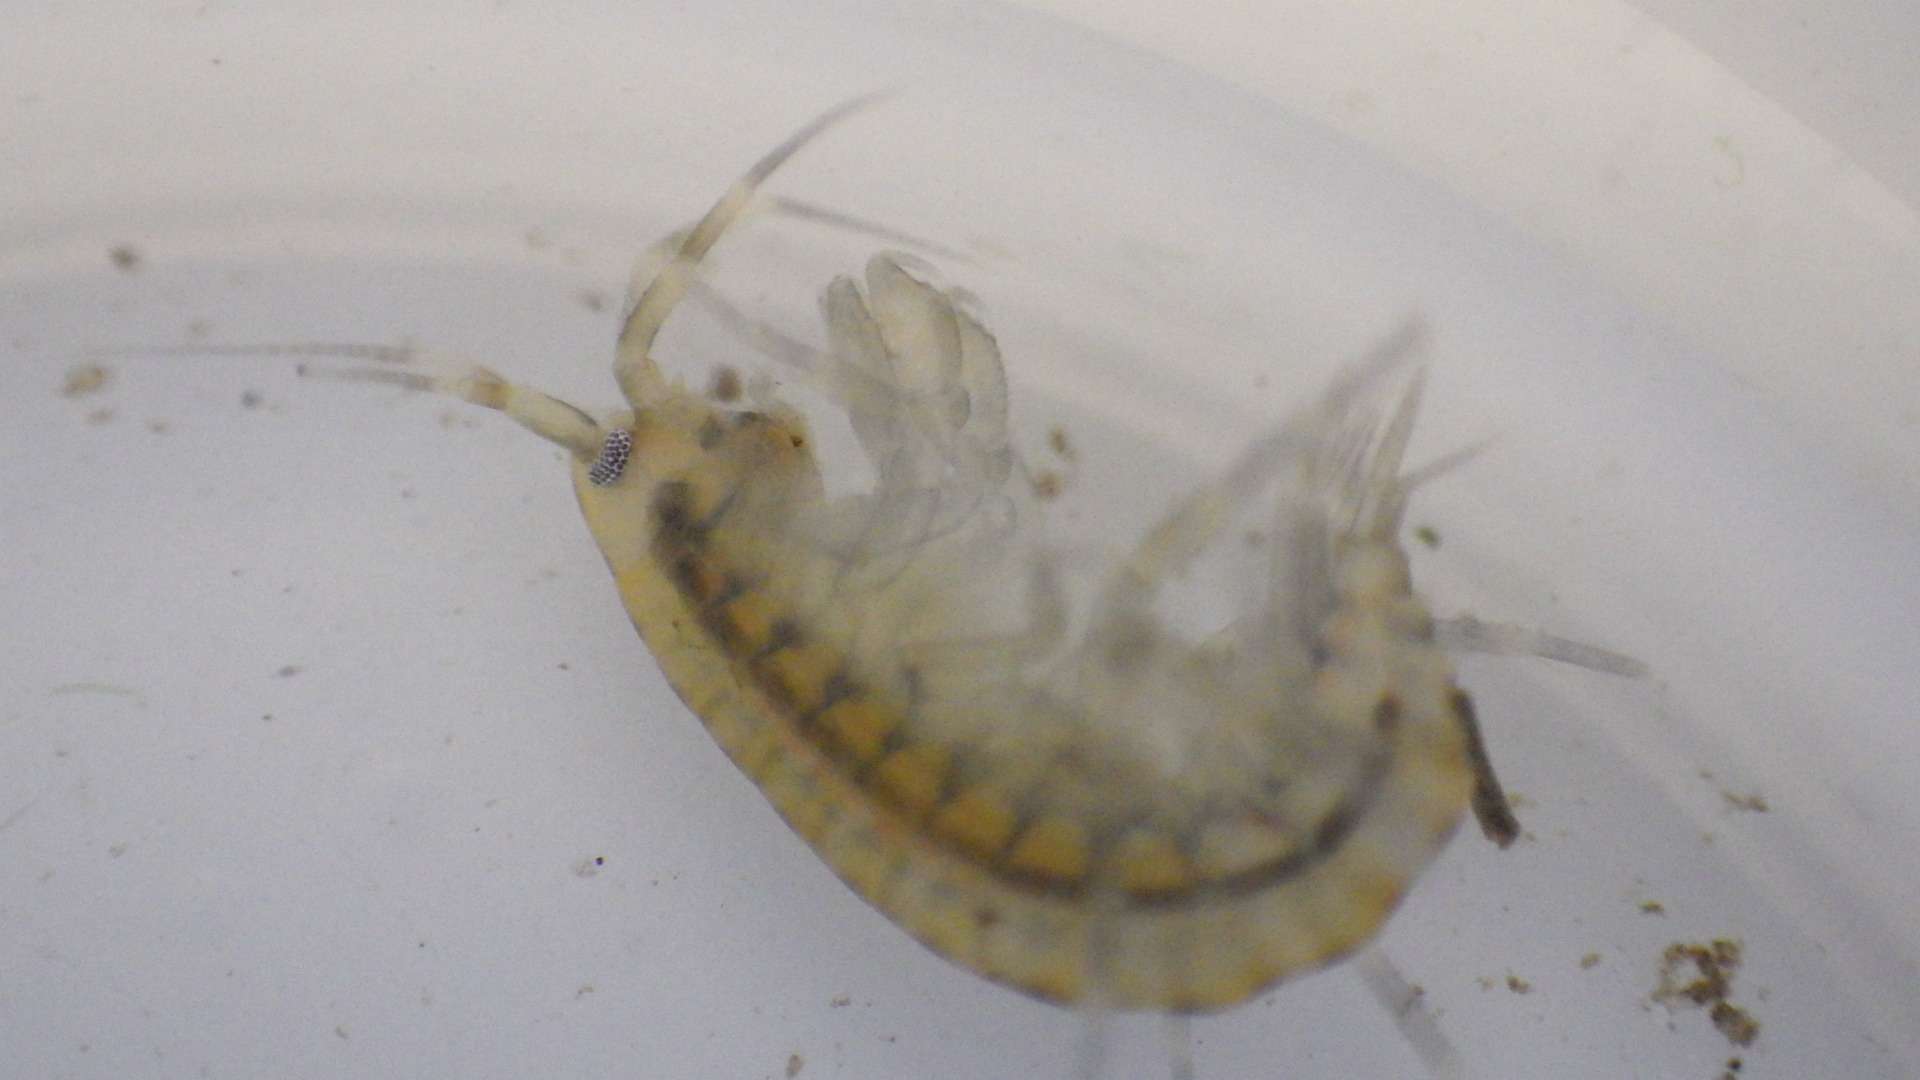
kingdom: Animalia
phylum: Arthropoda
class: Malacostraca
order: Amphipoda
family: Gammaridae
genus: Gammarus
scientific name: Gammarus fasciatus
